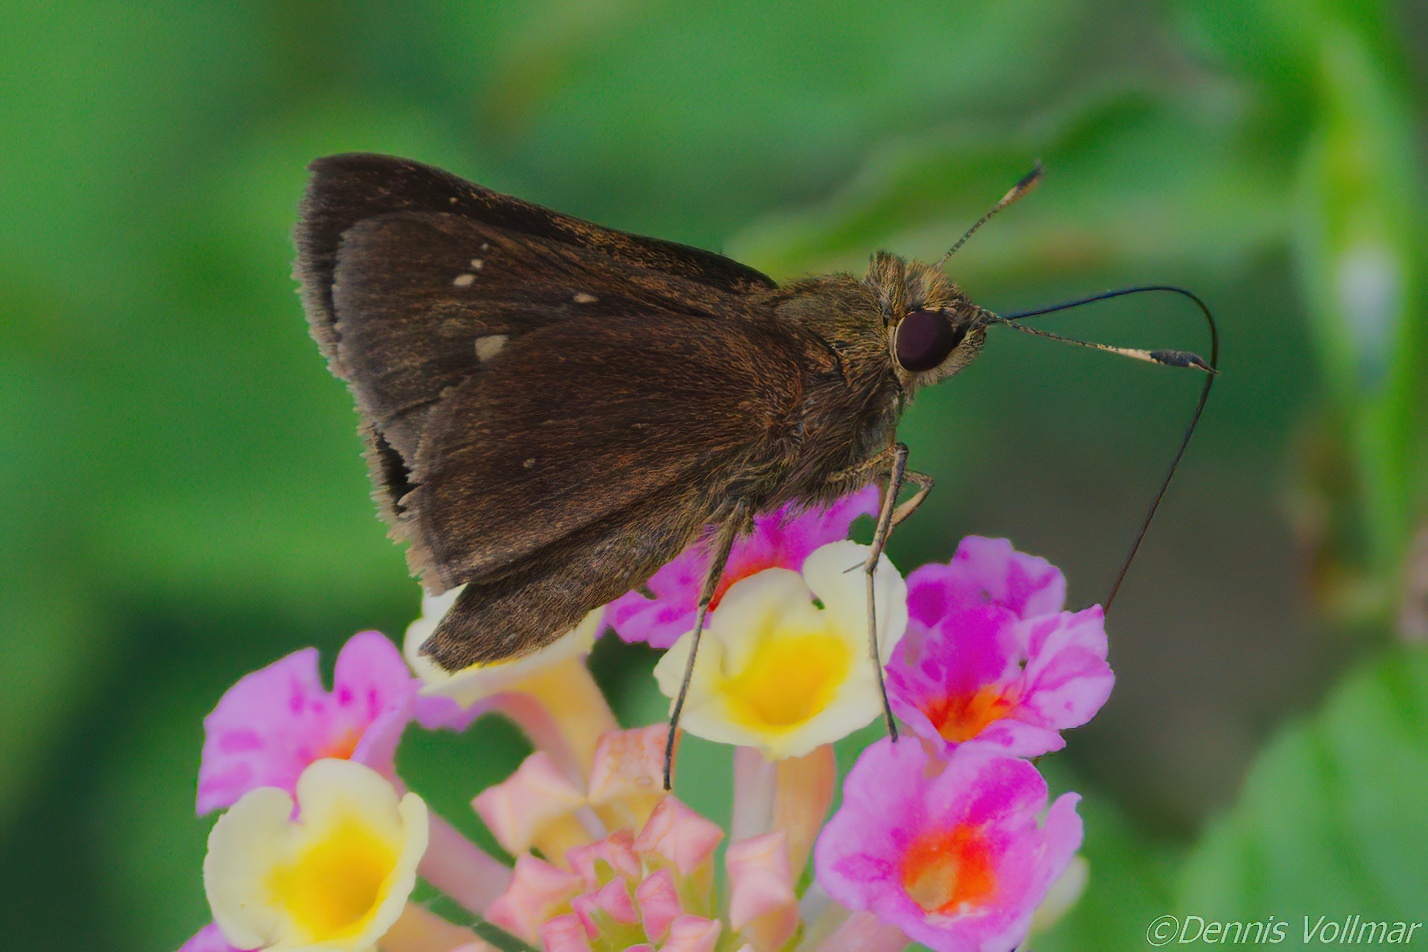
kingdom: Animalia
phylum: Arthropoda
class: Insecta
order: Lepidoptera
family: Hesperiidae
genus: Decinea
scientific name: Decinea percosius
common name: Double-dotted skipper
